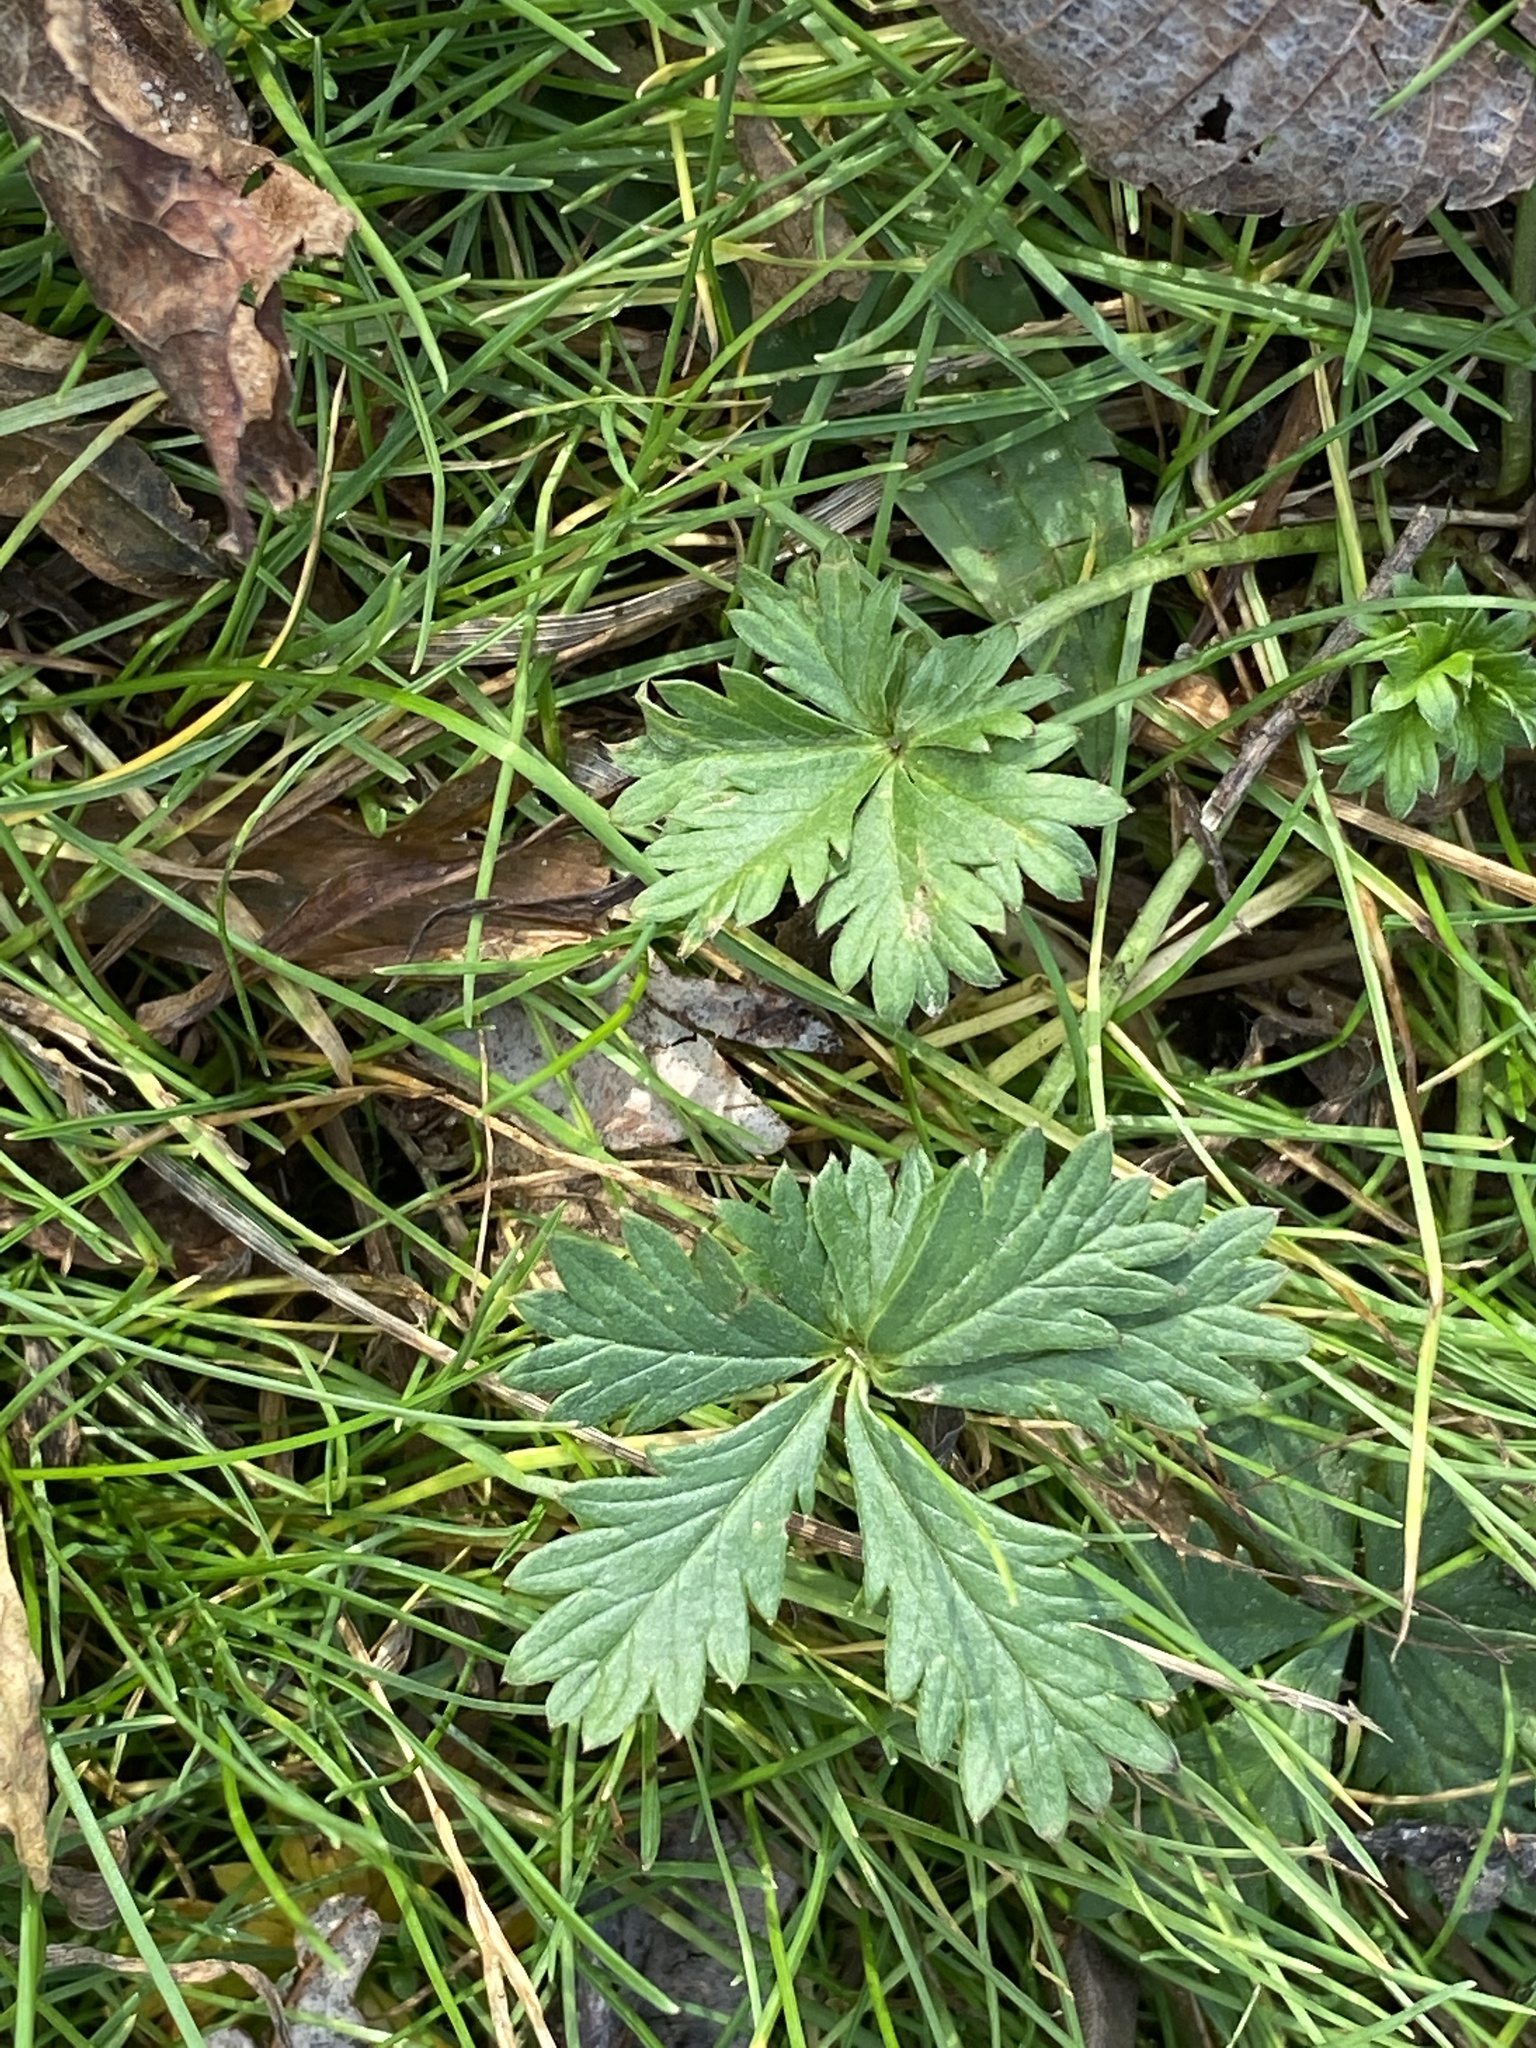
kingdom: Plantae
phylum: Tracheophyta
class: Magnoliopsida
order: Rosales
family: Rosaceae
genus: Potentilla
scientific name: Potentilla argentea
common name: Hoary cinquefoil
